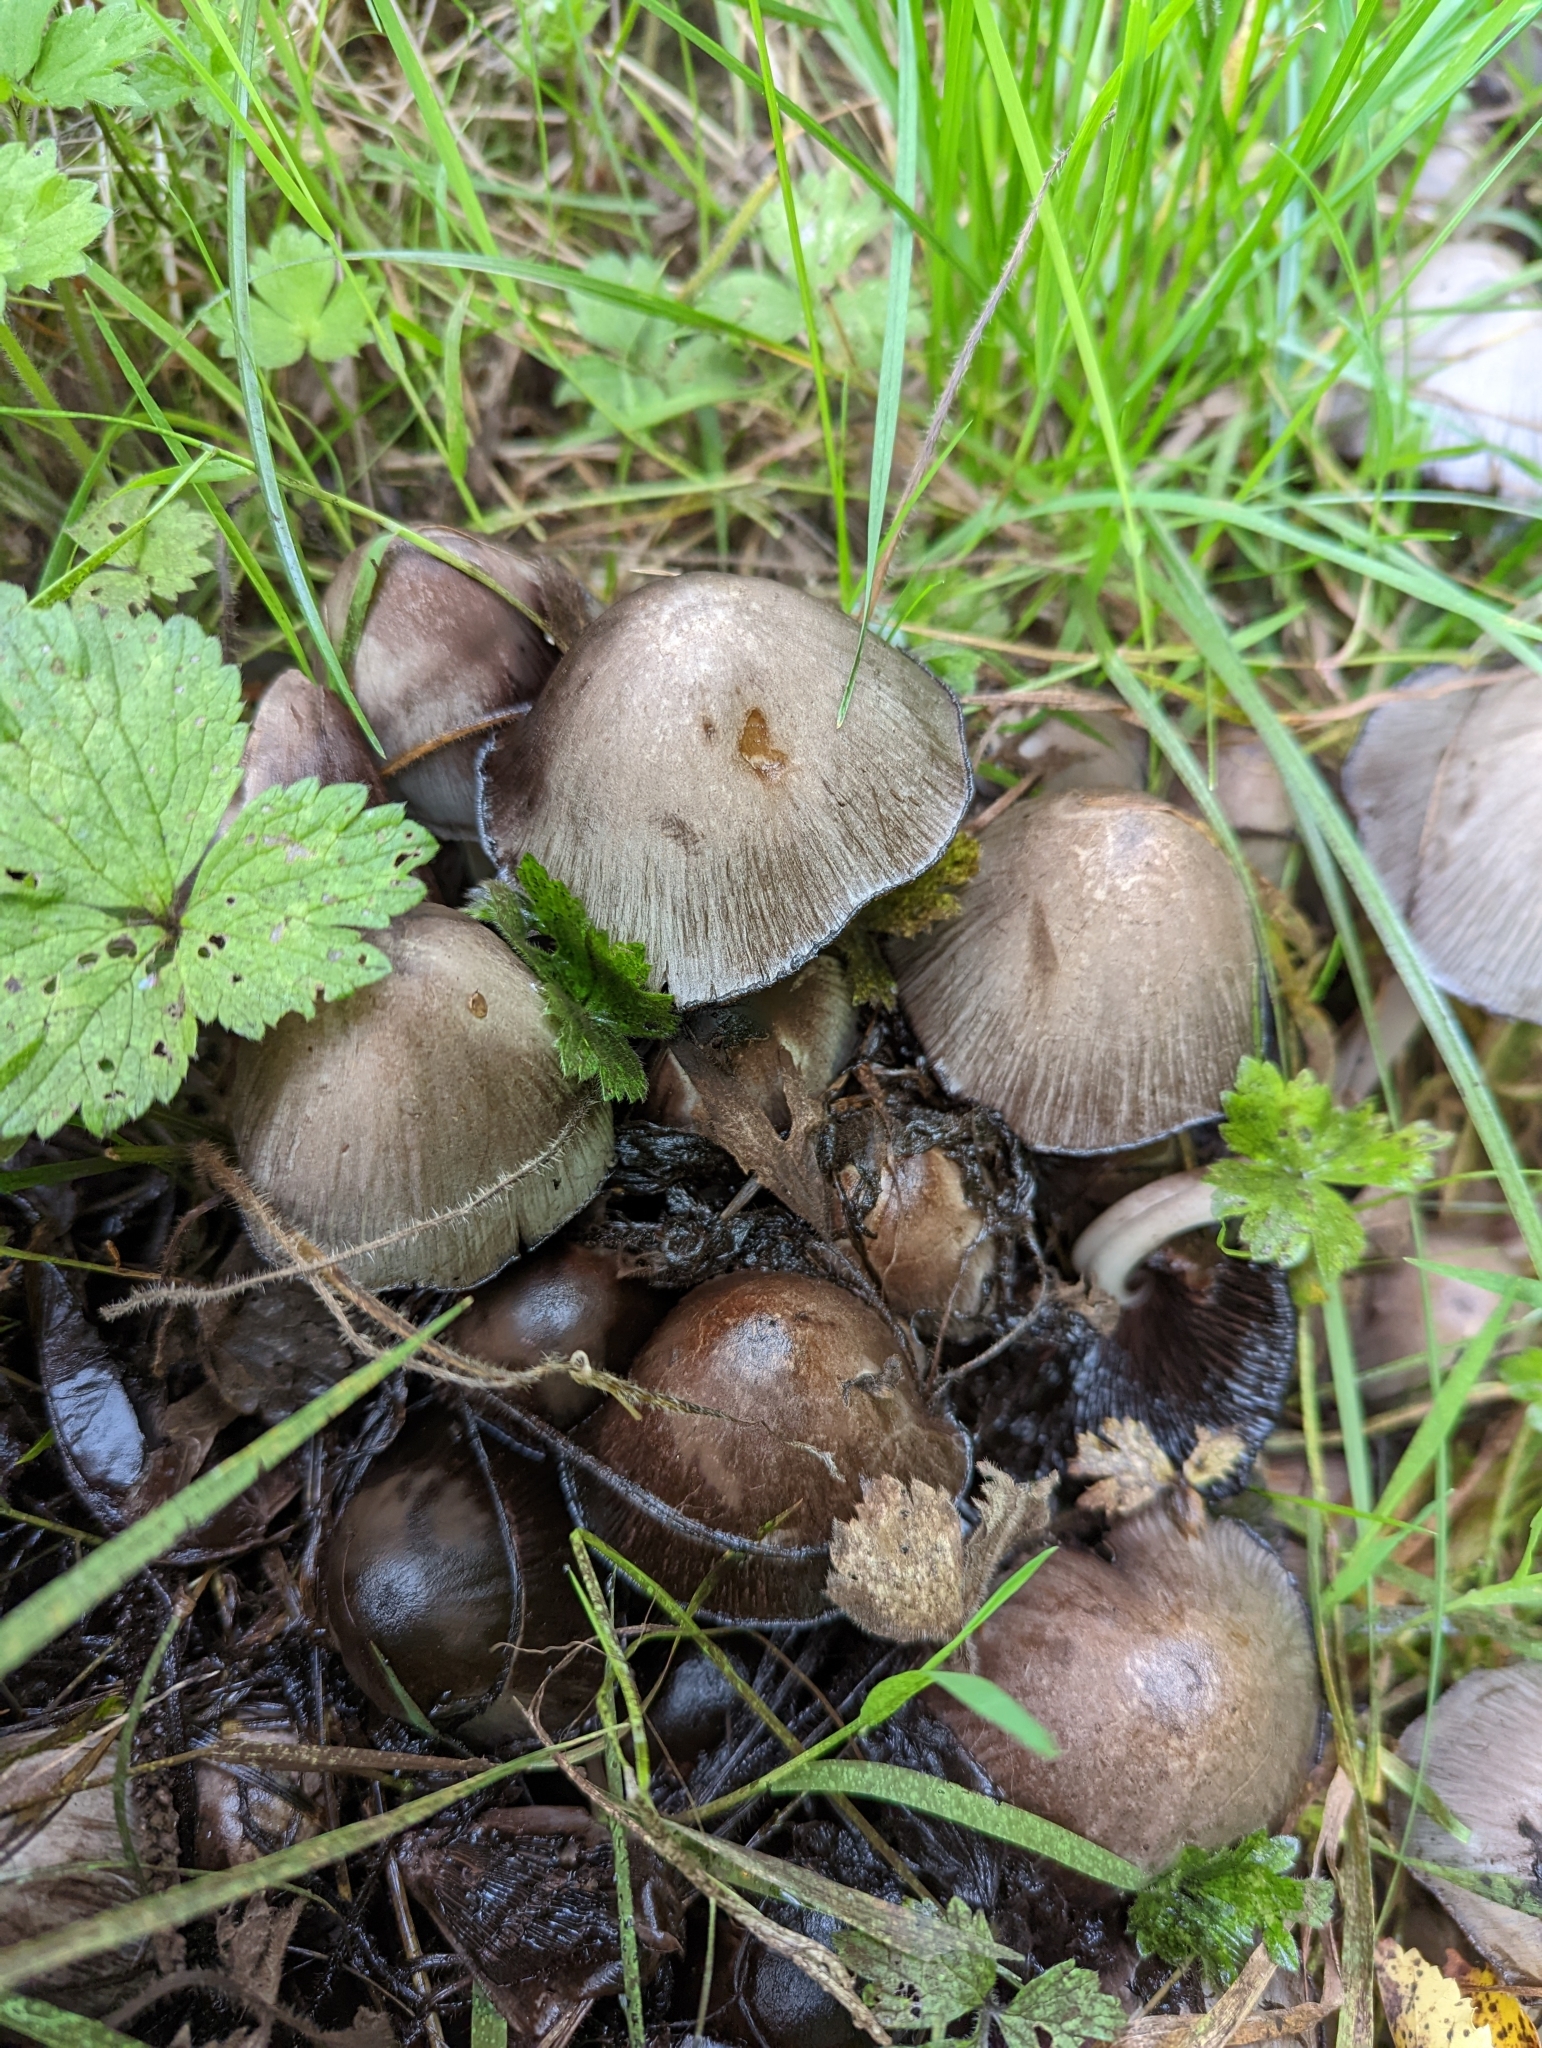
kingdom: Fungi
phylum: Basidiomycota
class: Agaricomycetes
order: Agaricales
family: Psathyrellaceae
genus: Coprinopsis
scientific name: Coprinopsis atramentaria
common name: Common ink-cap
